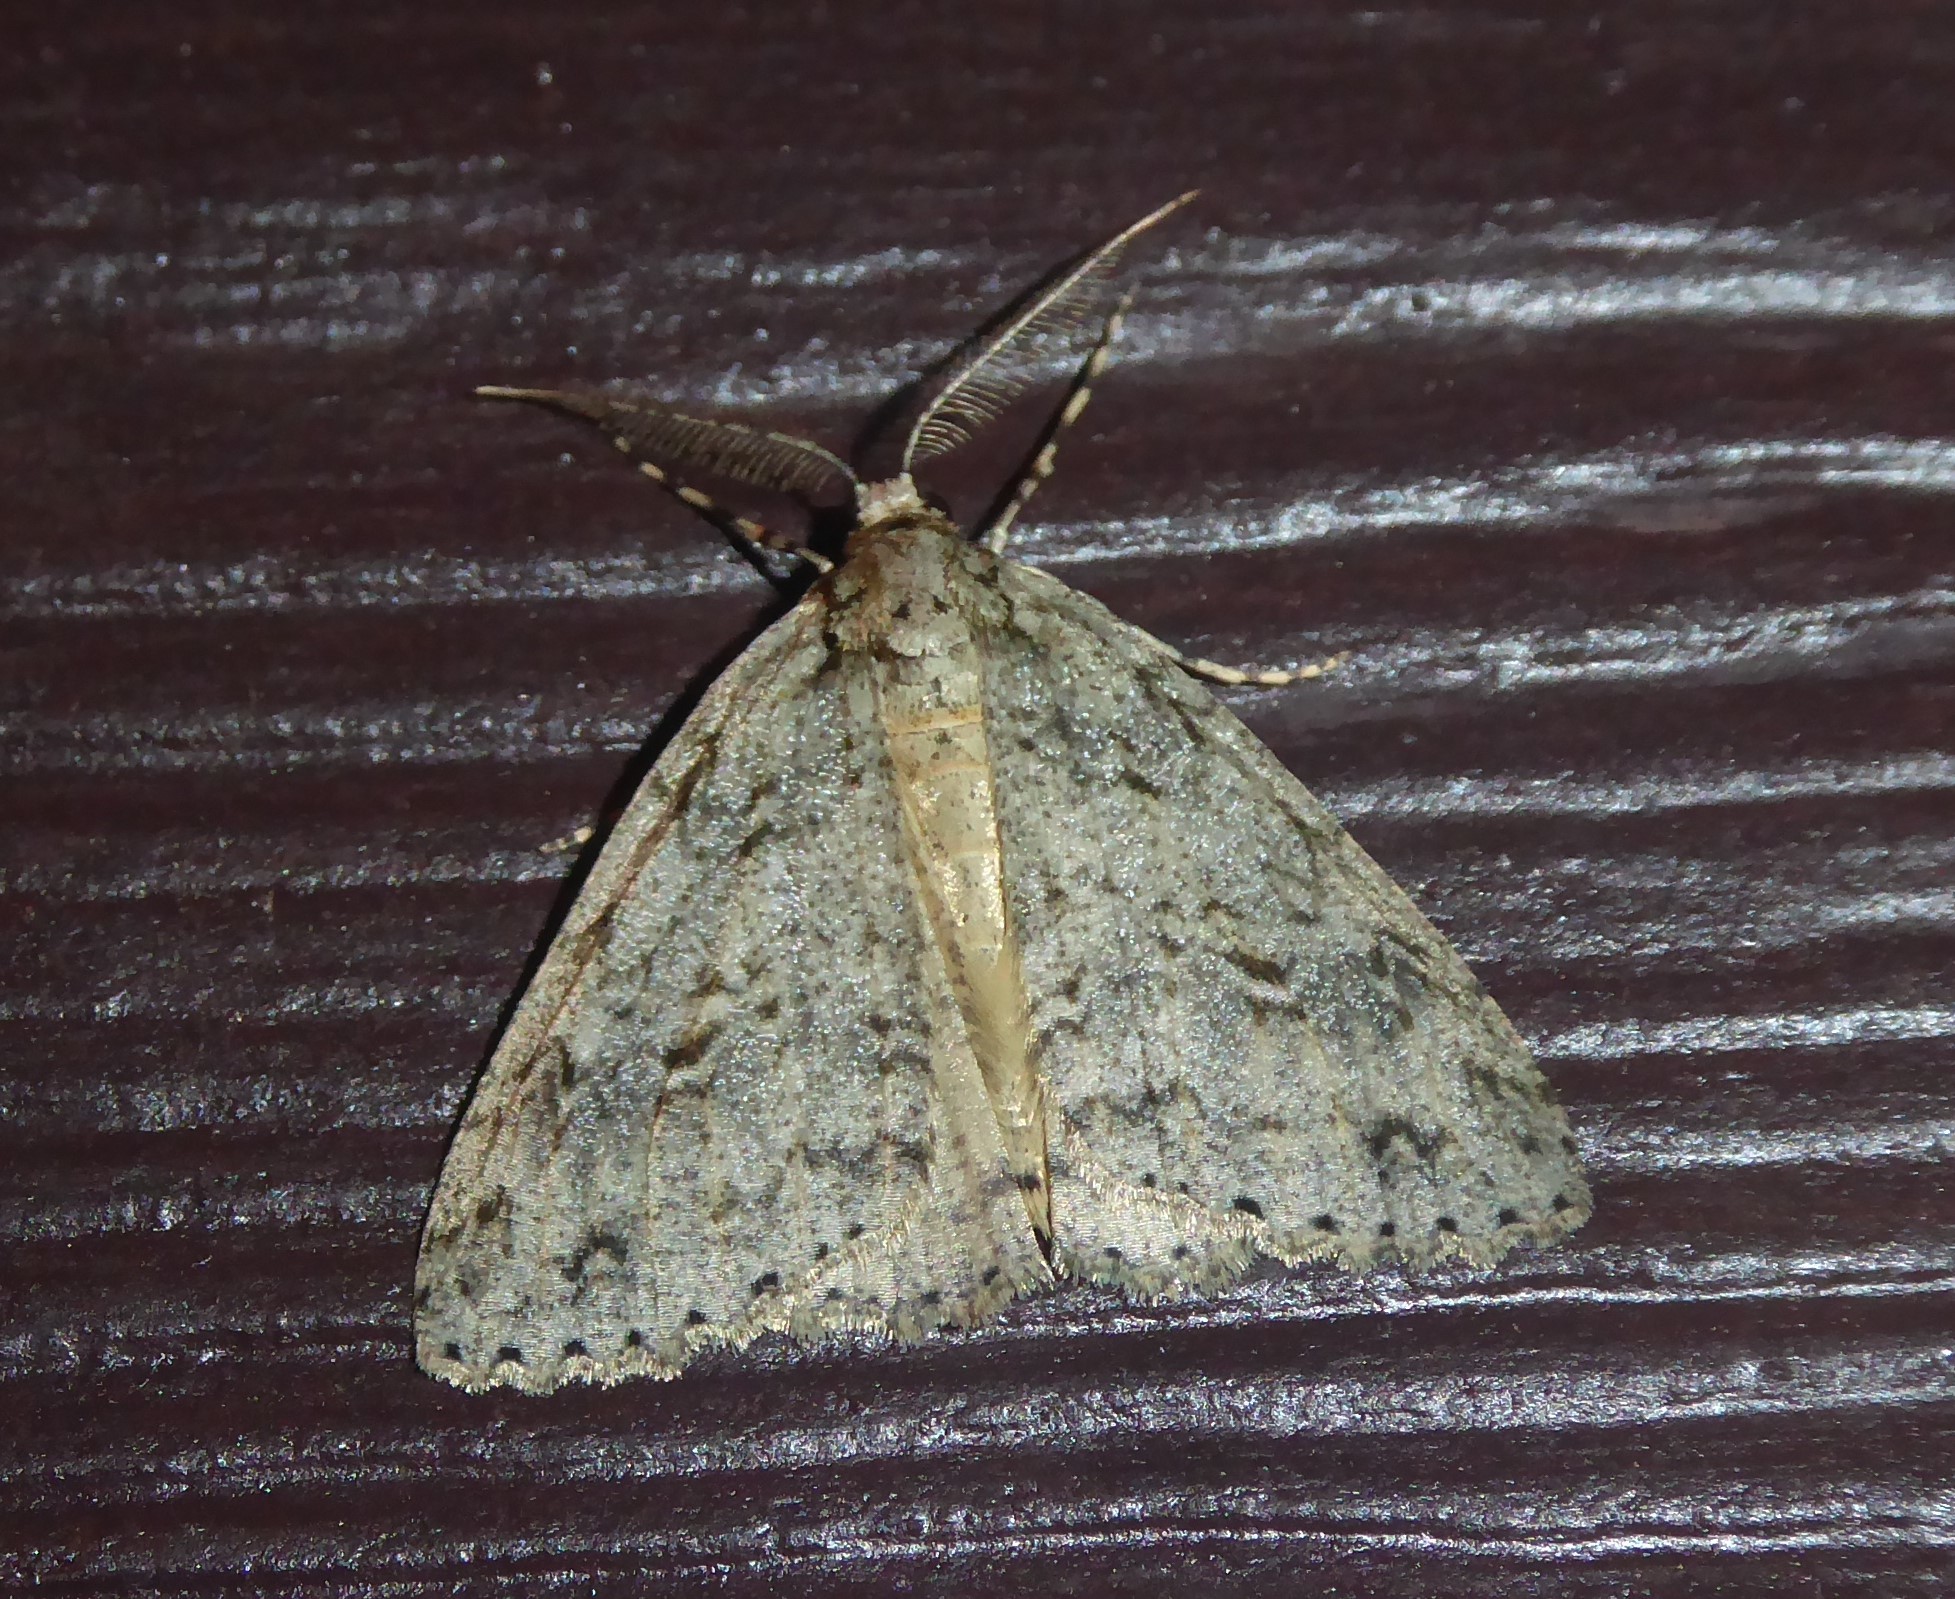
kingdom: Animalia
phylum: Arthropoda
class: Insecta
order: Lepidoptera
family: Geometridae
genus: Pseudocoremia
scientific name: Pseudocoremia rudisata
